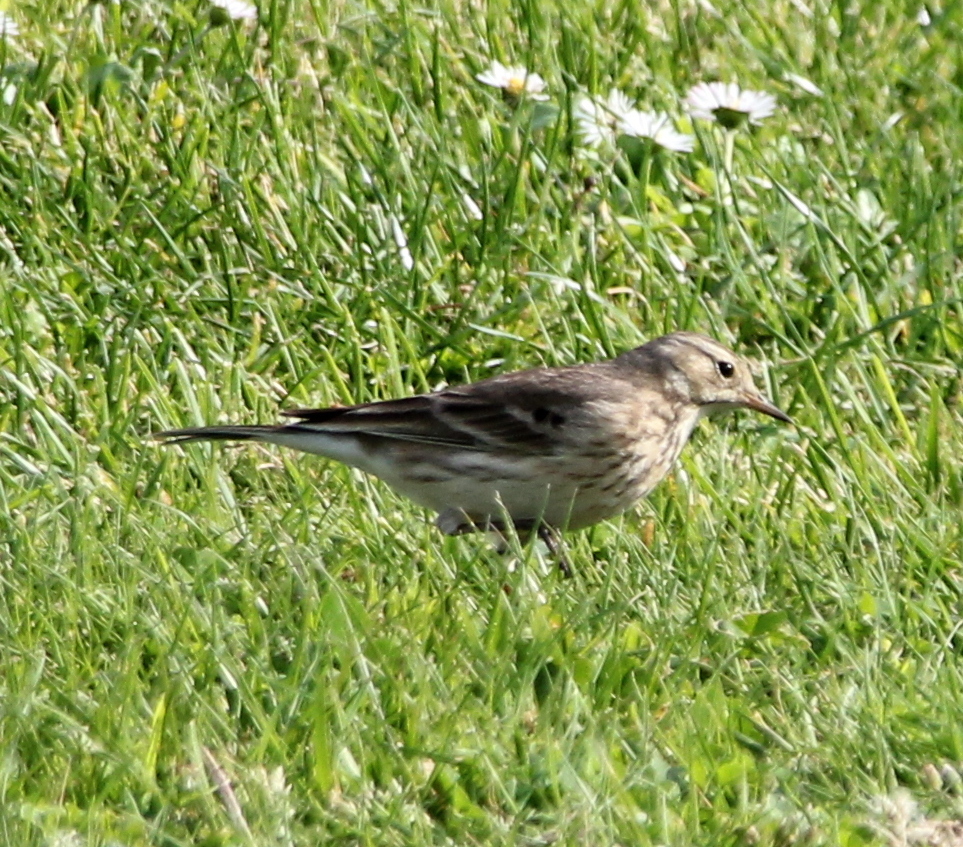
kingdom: Animalia
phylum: Chordata
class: Aves
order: Passeriformes
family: Motacillidae
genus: Anthus
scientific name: Anthus rubescens
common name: Buff-bellied pipit
